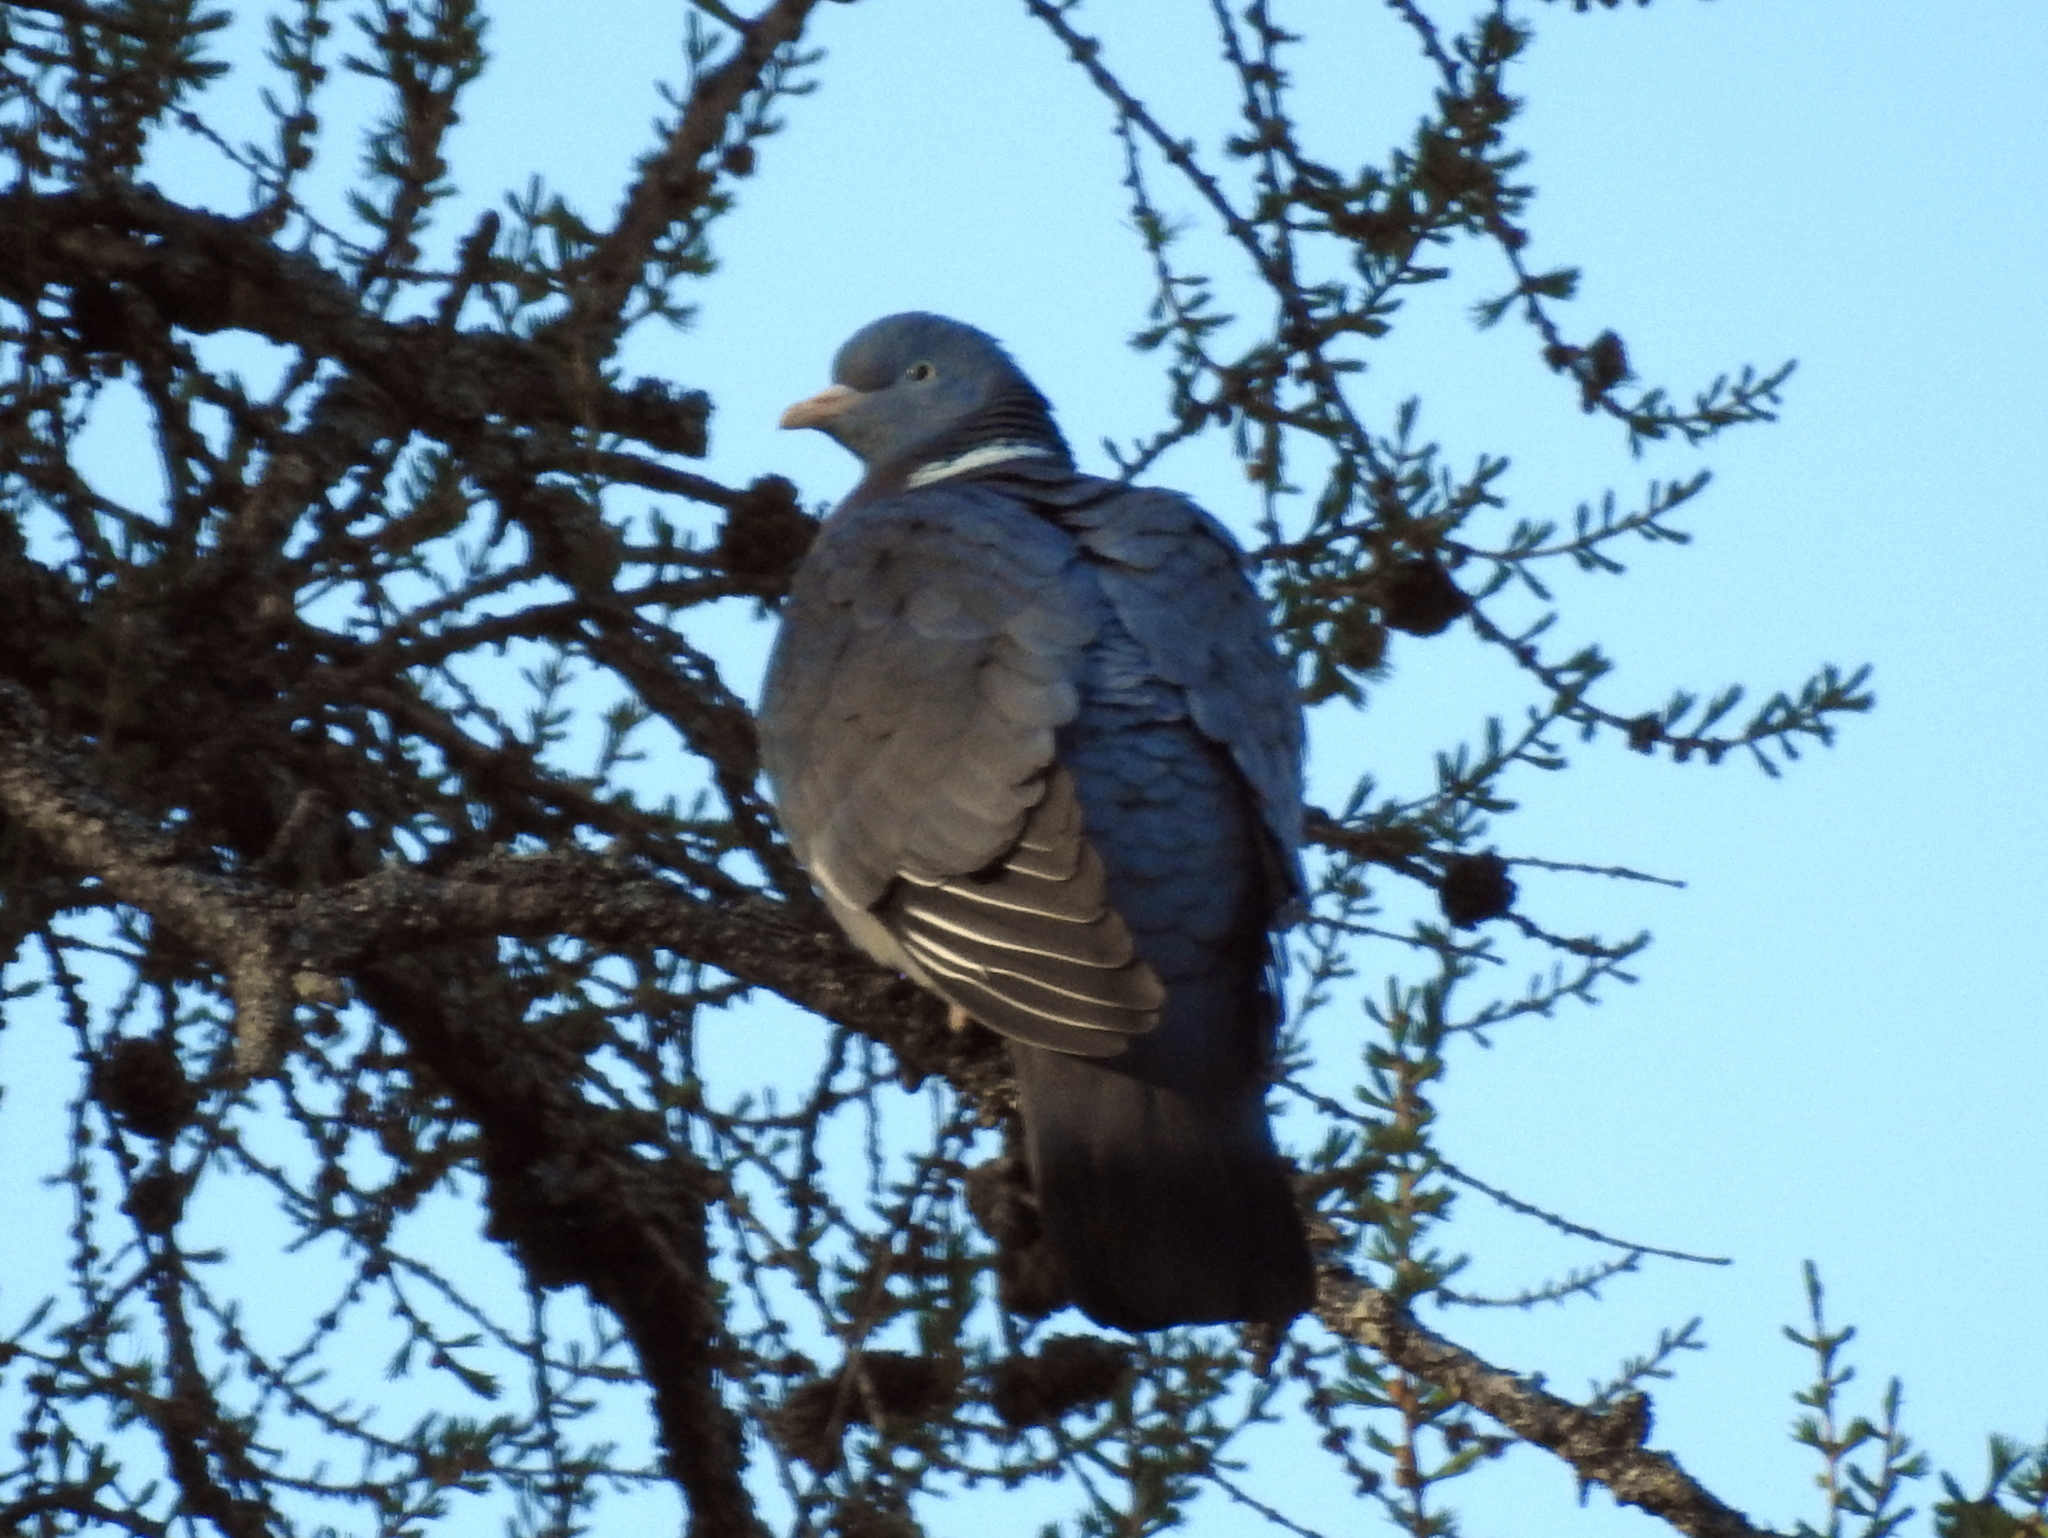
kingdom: Animalia
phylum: Chordata
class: Aves
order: Columbiformes
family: Columbidae
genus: Columba
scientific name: Columba palumbus
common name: Common wood pigeon
